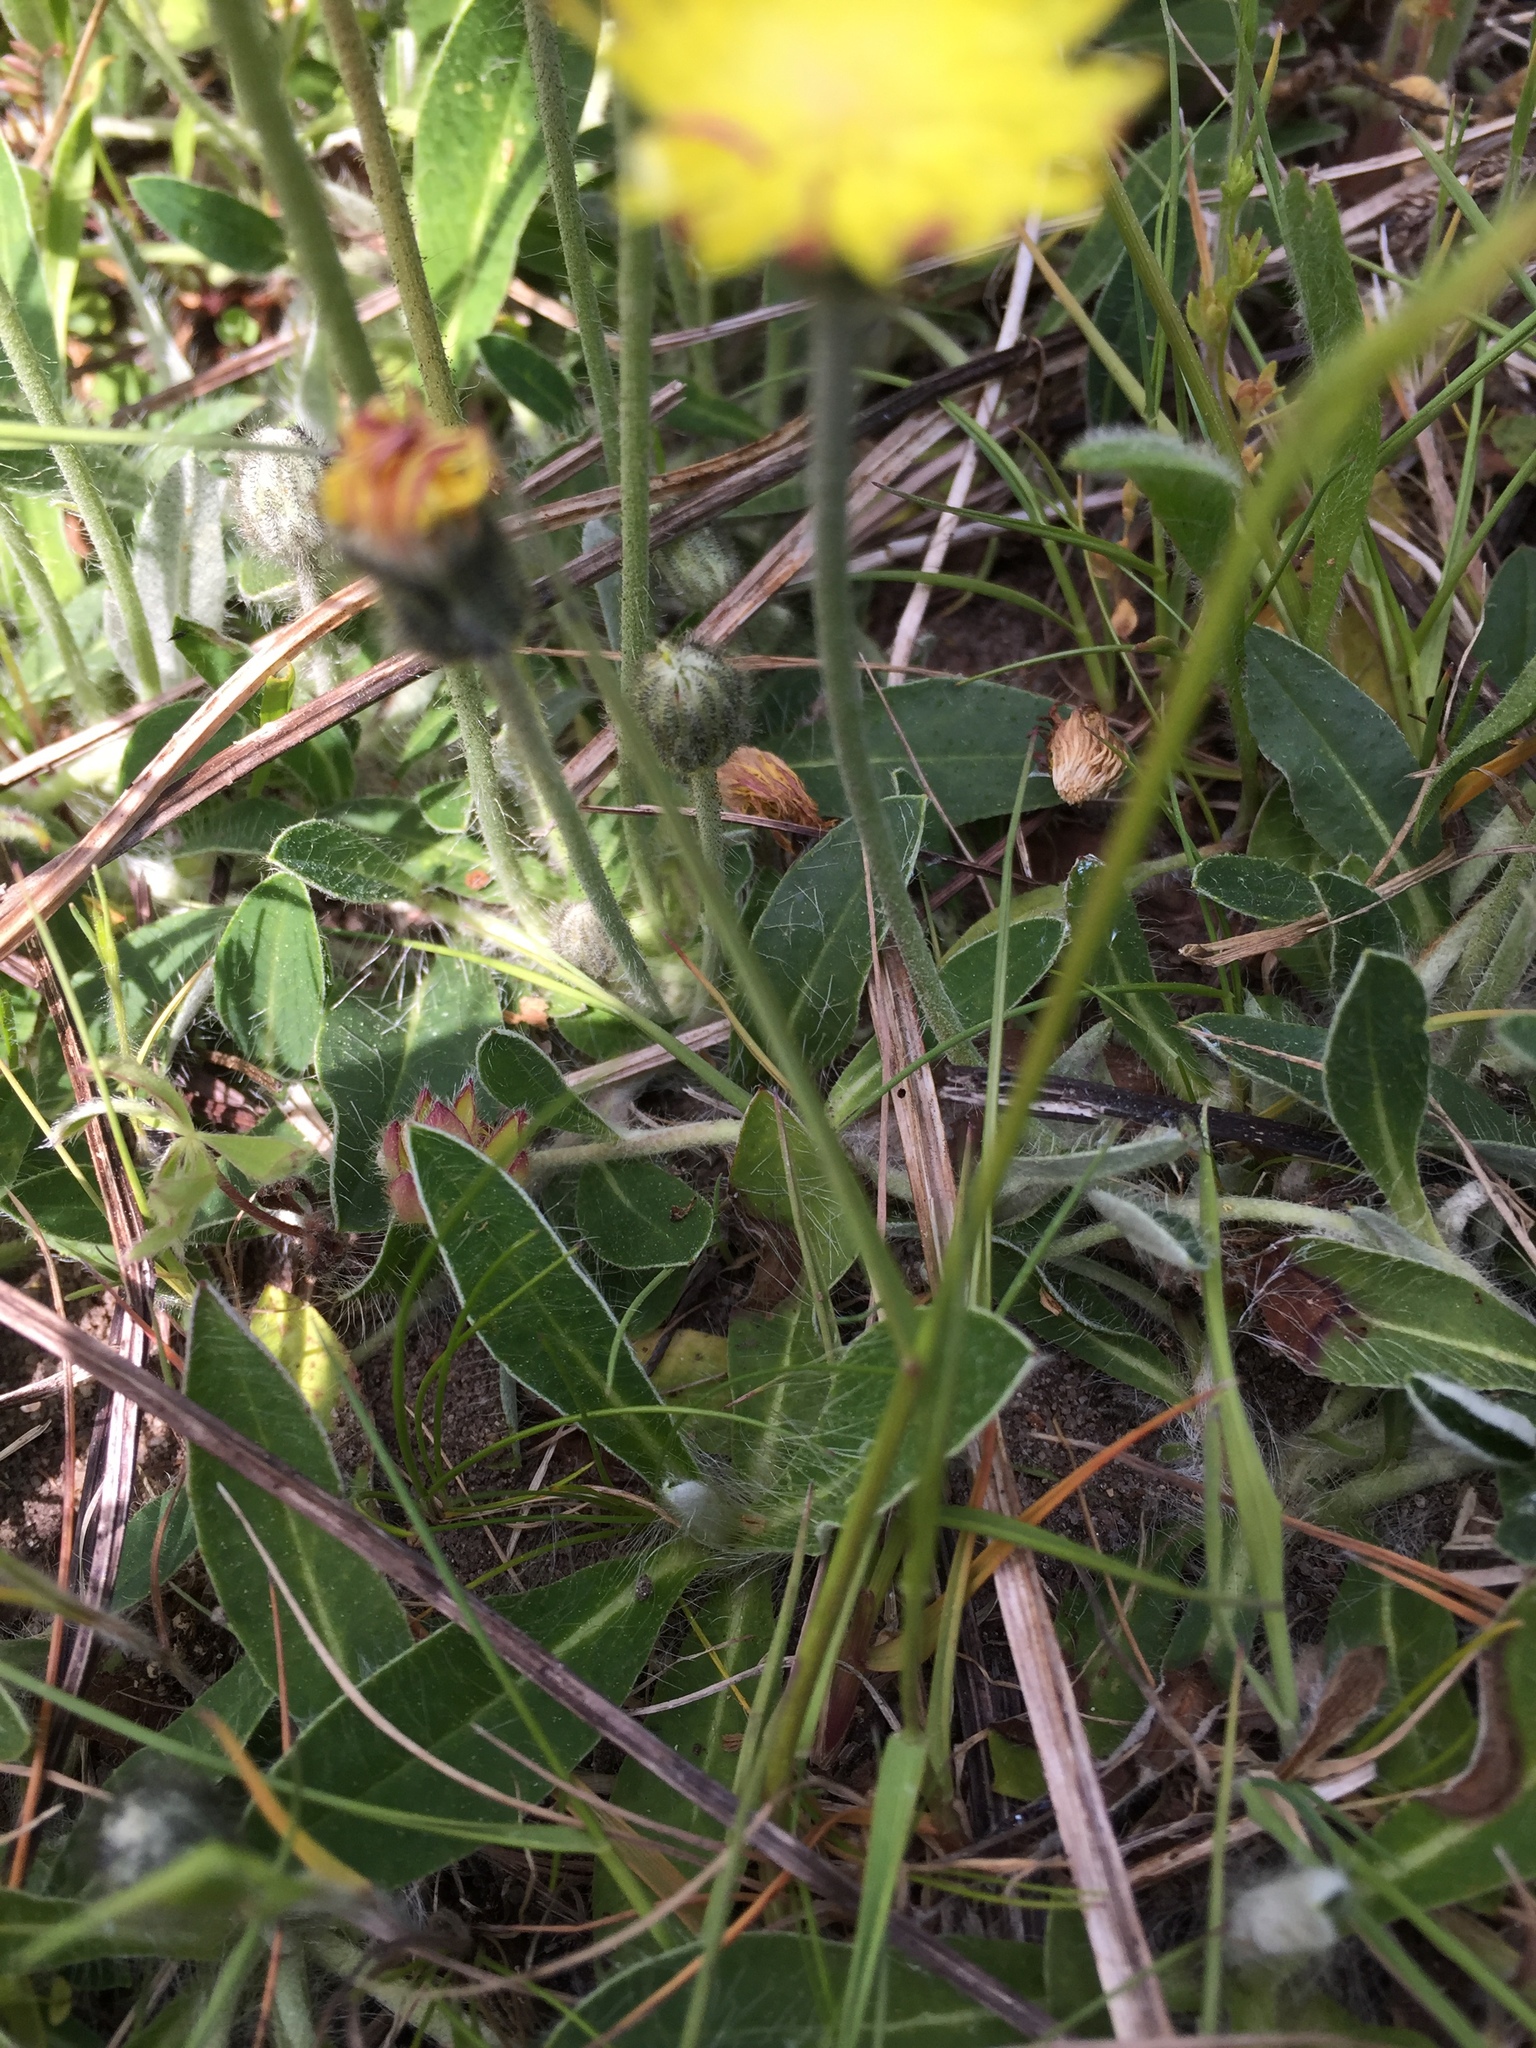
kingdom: Plantae
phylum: Tracheophyta
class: Magnoliopsida
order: Asterales
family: Asteraceae
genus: Pilosella
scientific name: Pilosella officinarum
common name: Mouse-ear hawkweed
